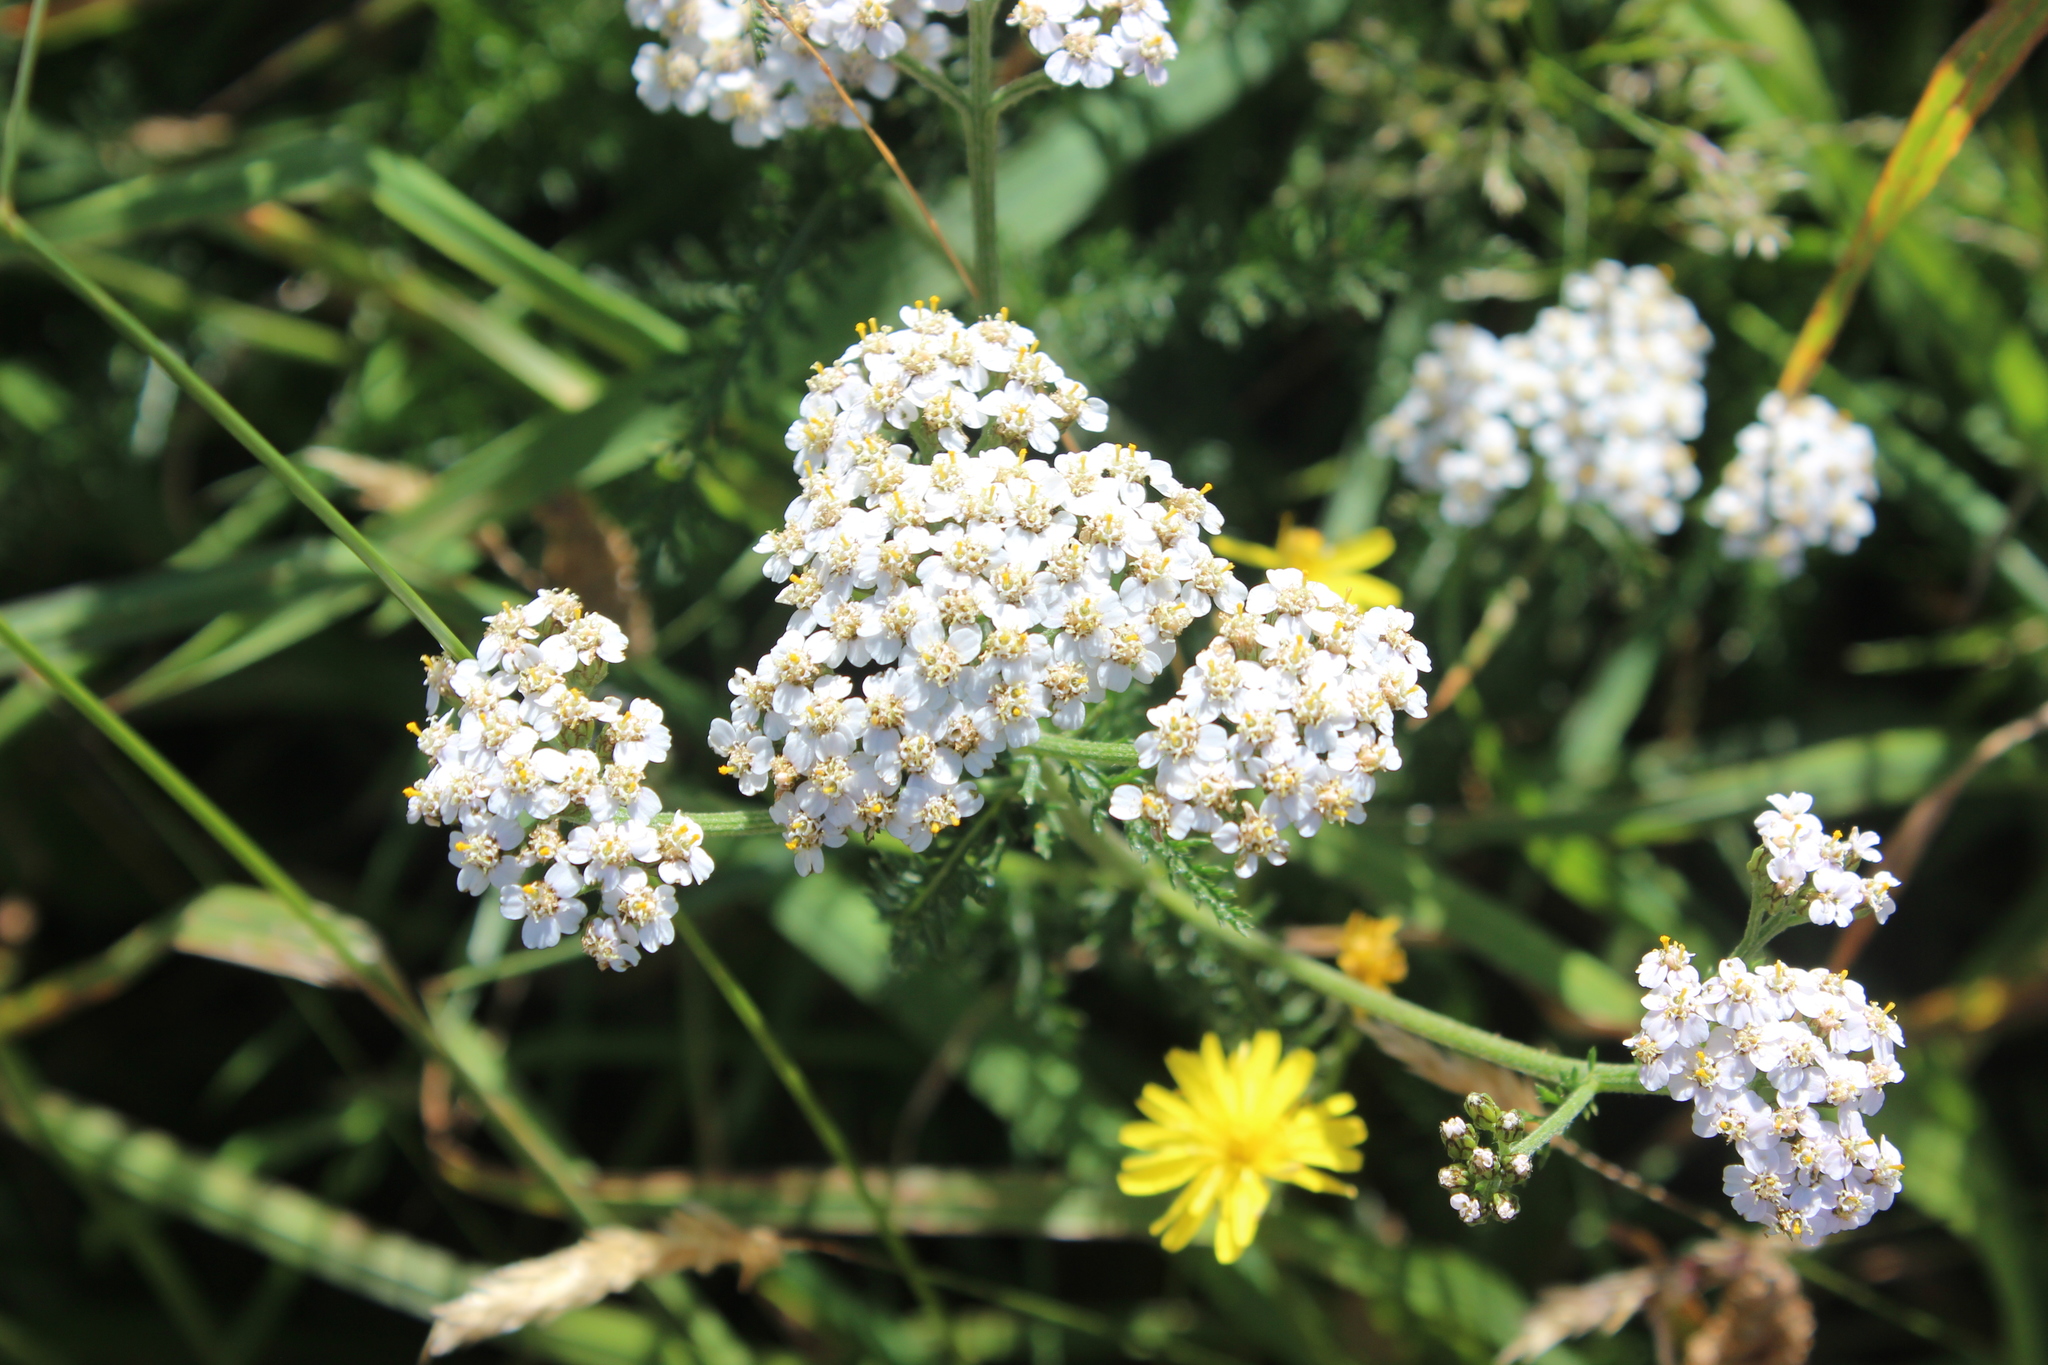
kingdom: Plantae
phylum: Tracheophyta
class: Magnoliopsida
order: Asterales
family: Asteraceae
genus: Achillea
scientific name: Achillea millefolium
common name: Yarrow
